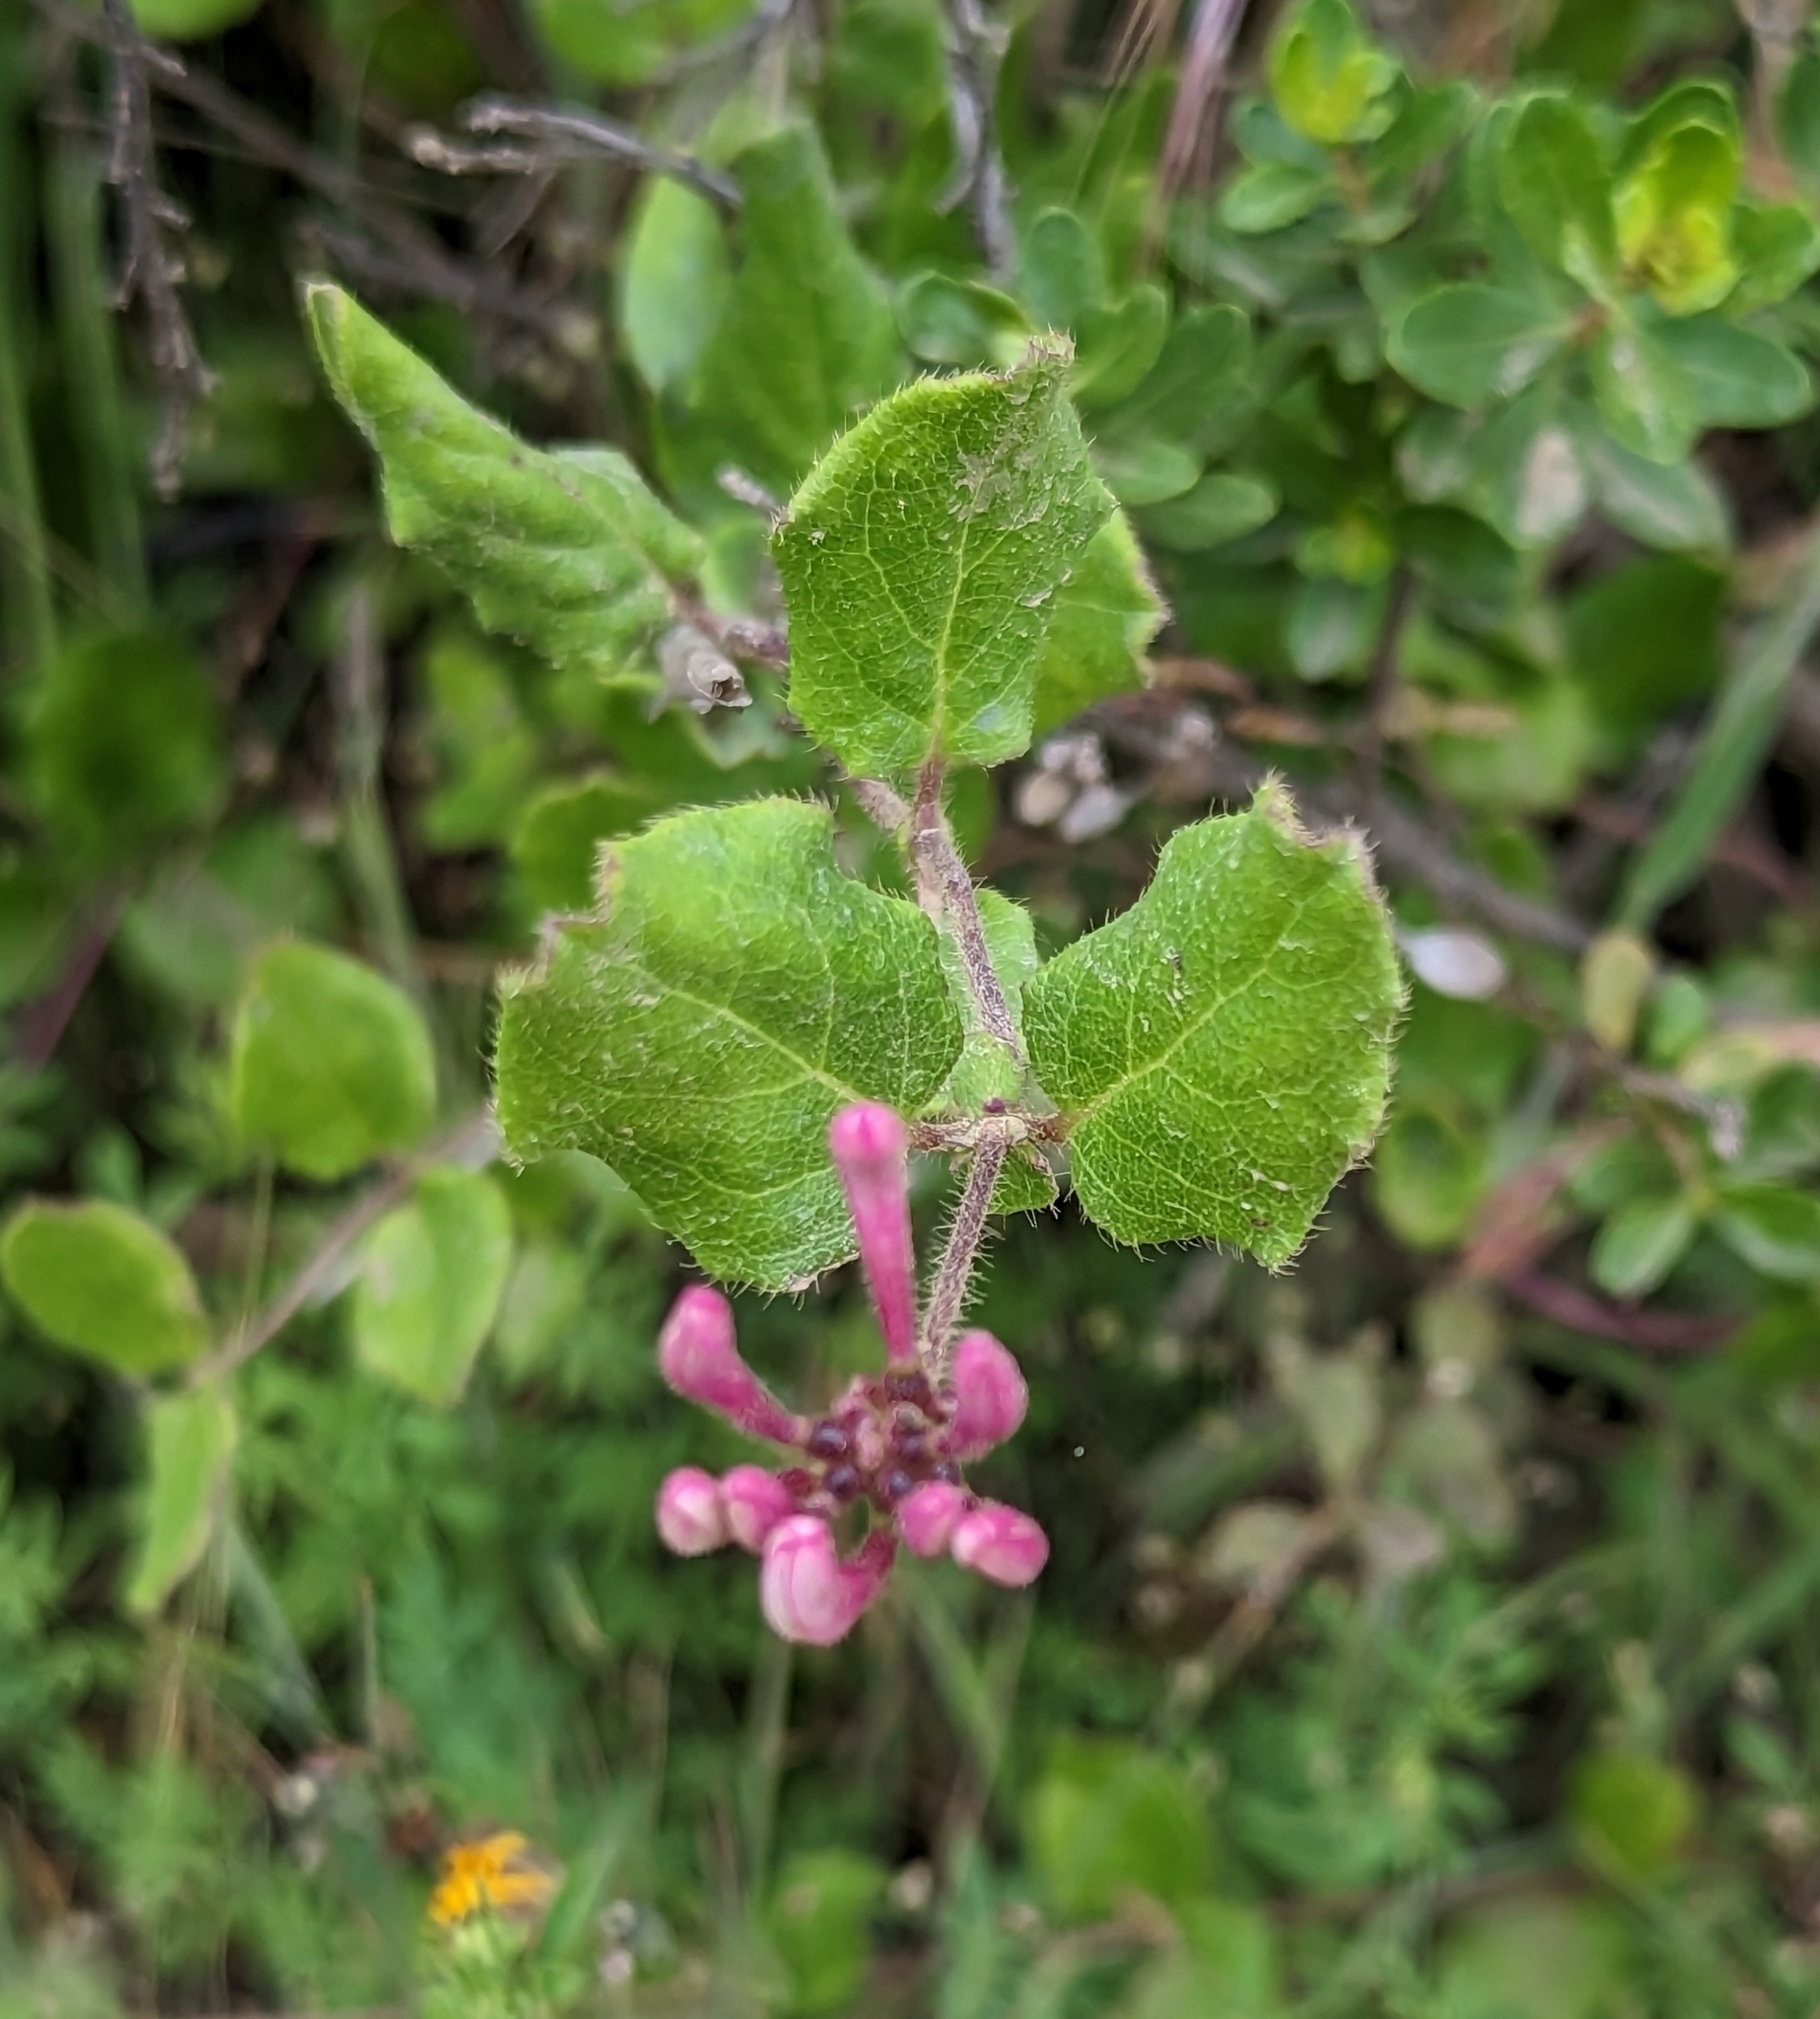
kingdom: Plantae
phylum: Tracheophyta
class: Magnoliopsida
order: Dipsacales
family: Caprifoliaceae
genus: Lonicera
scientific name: Lonicera hispidula
